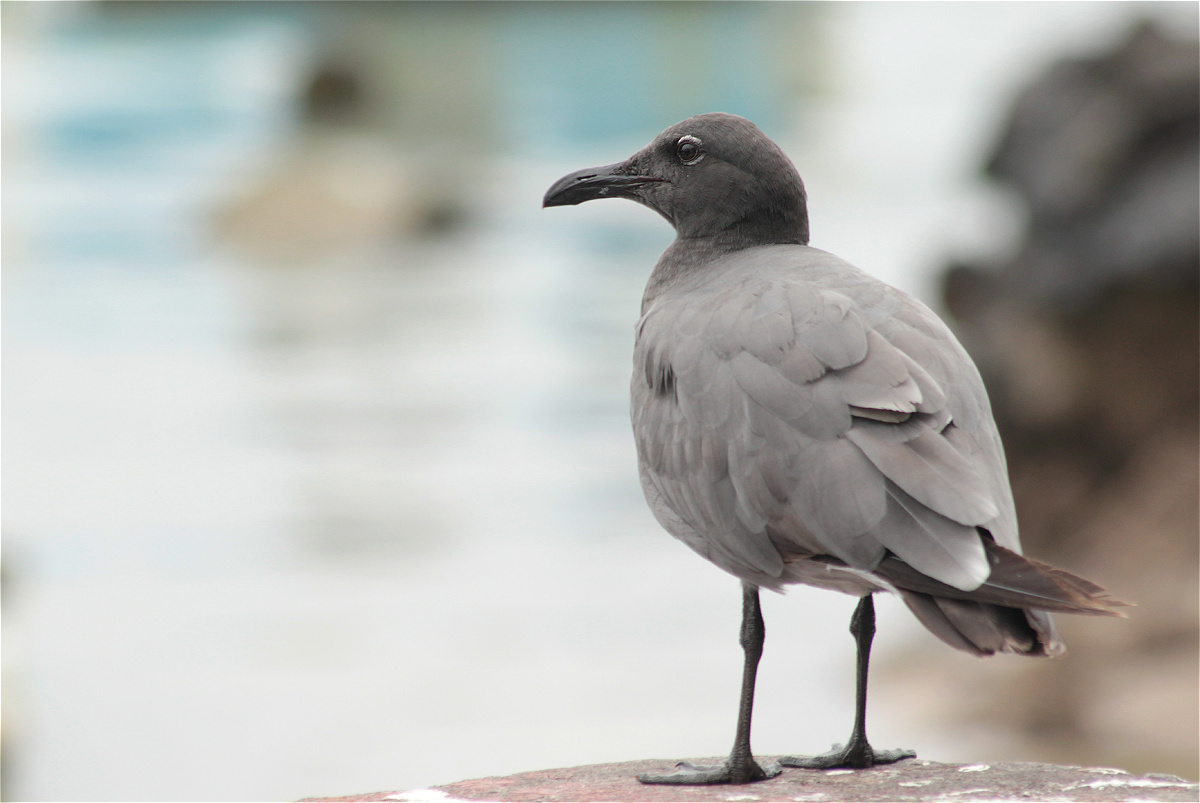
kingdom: Animalia
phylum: Chordata
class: Aves
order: Charadriiformes
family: Laridae
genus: Leucophaeus
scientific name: Leucophaeus fuliginosus
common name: Lava gull
